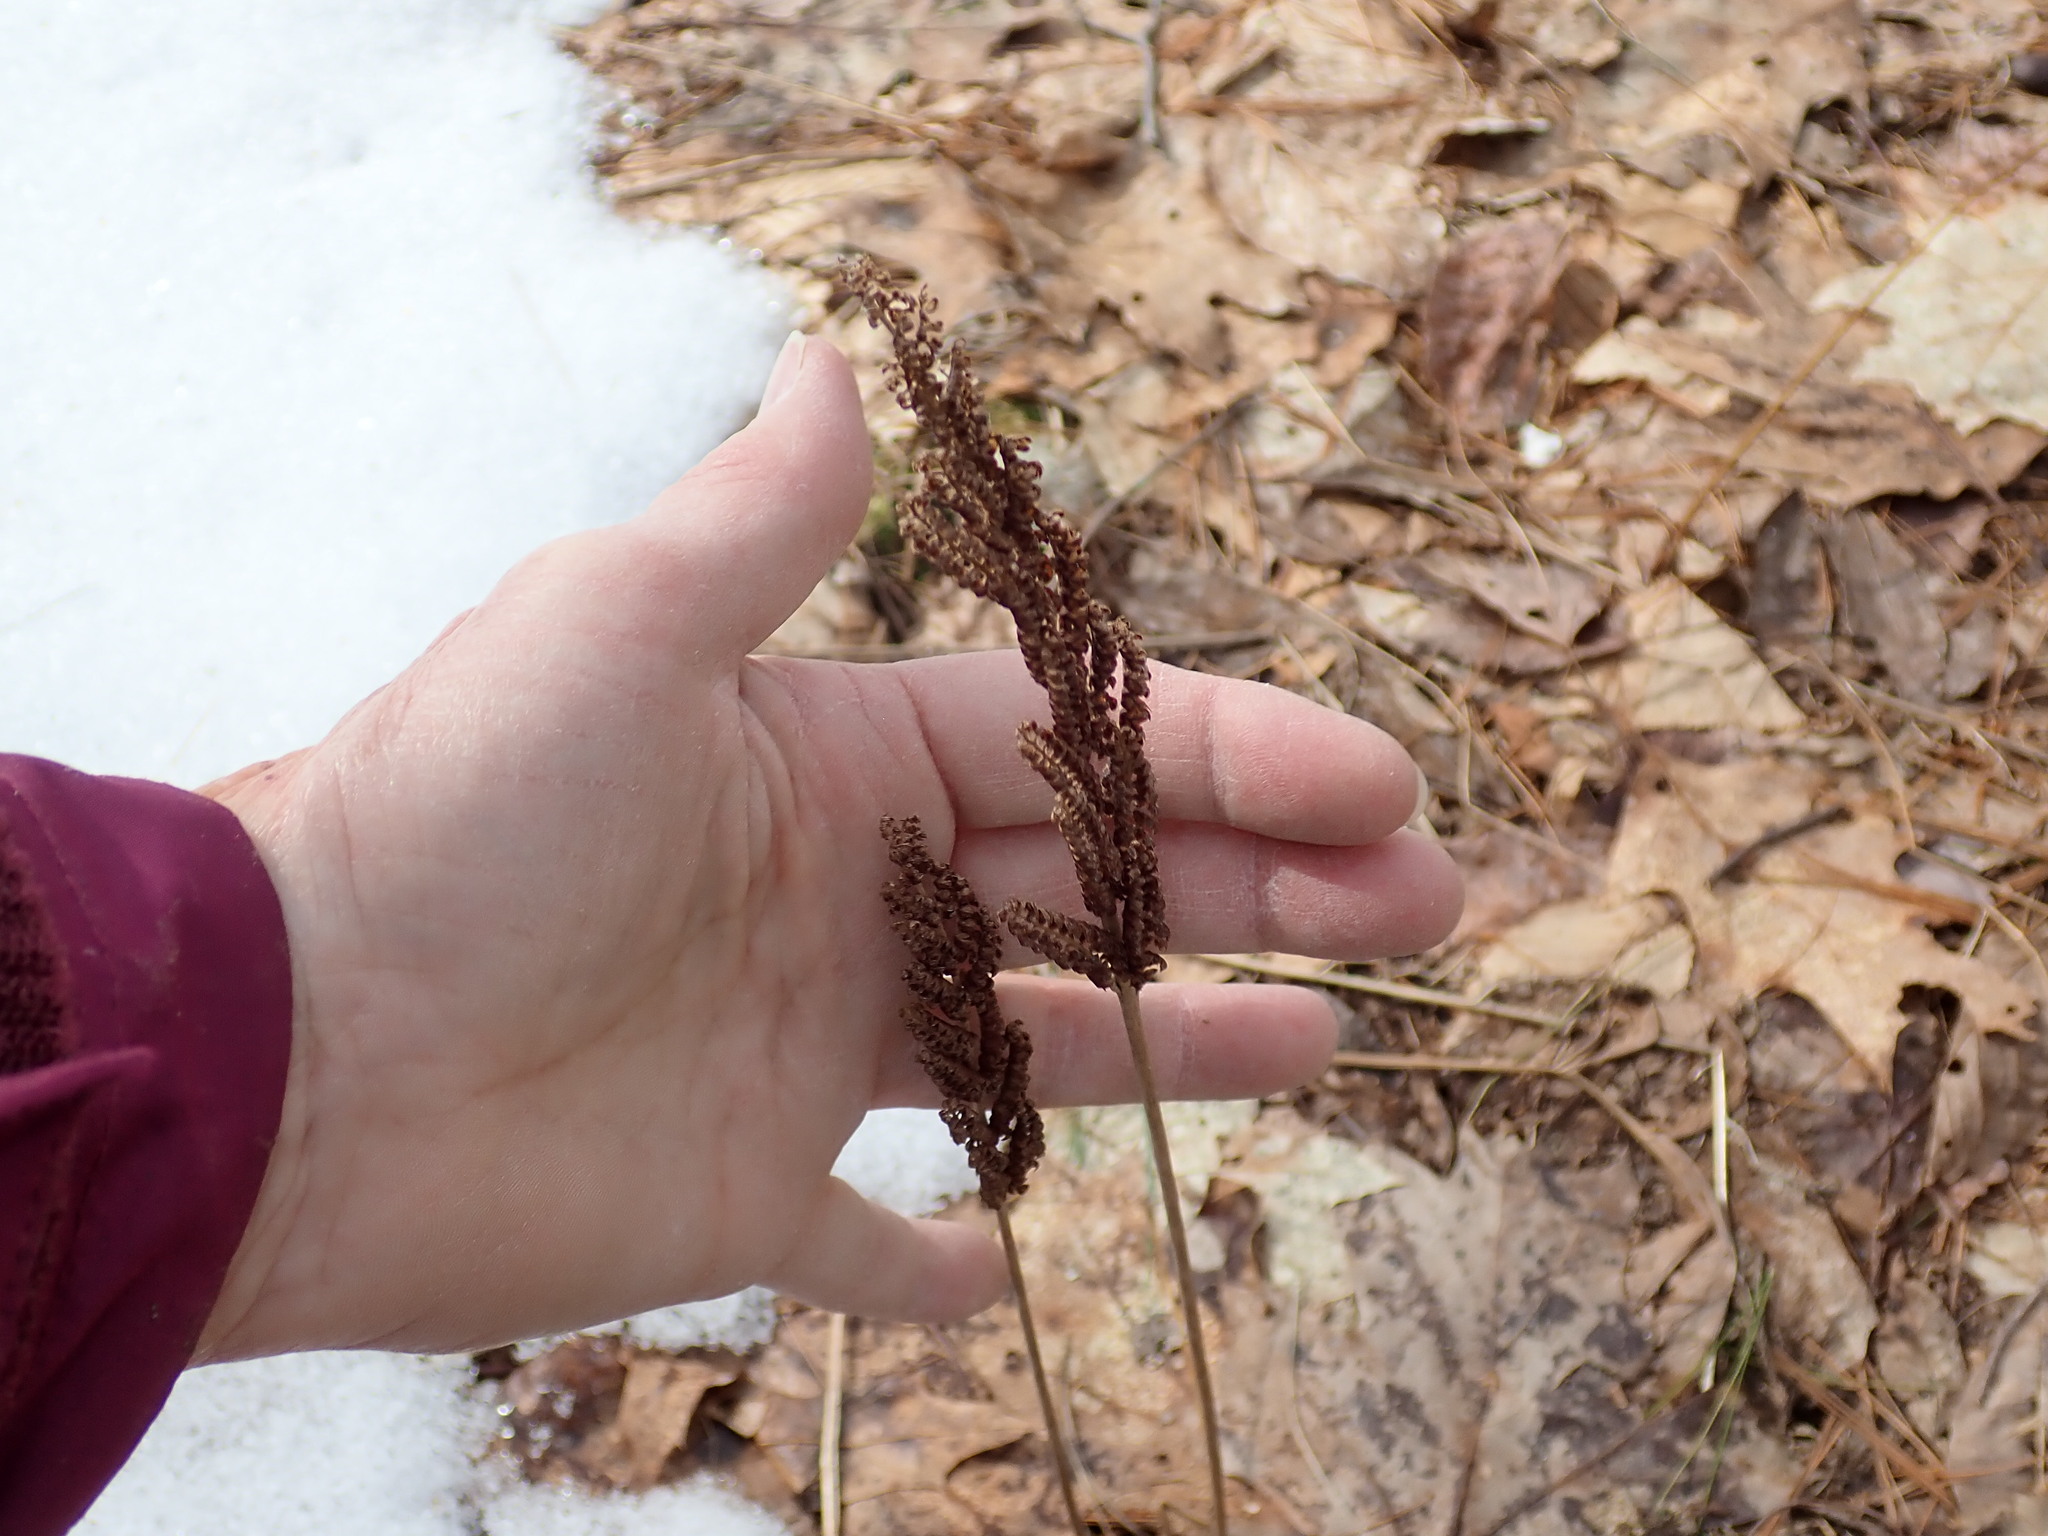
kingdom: Plantae
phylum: Tracheophyta
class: Polypodiopsida
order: Polypodiales
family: Onocleaceae
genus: Onoclea
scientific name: Onoclea sensibilis
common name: Sensitive fern
